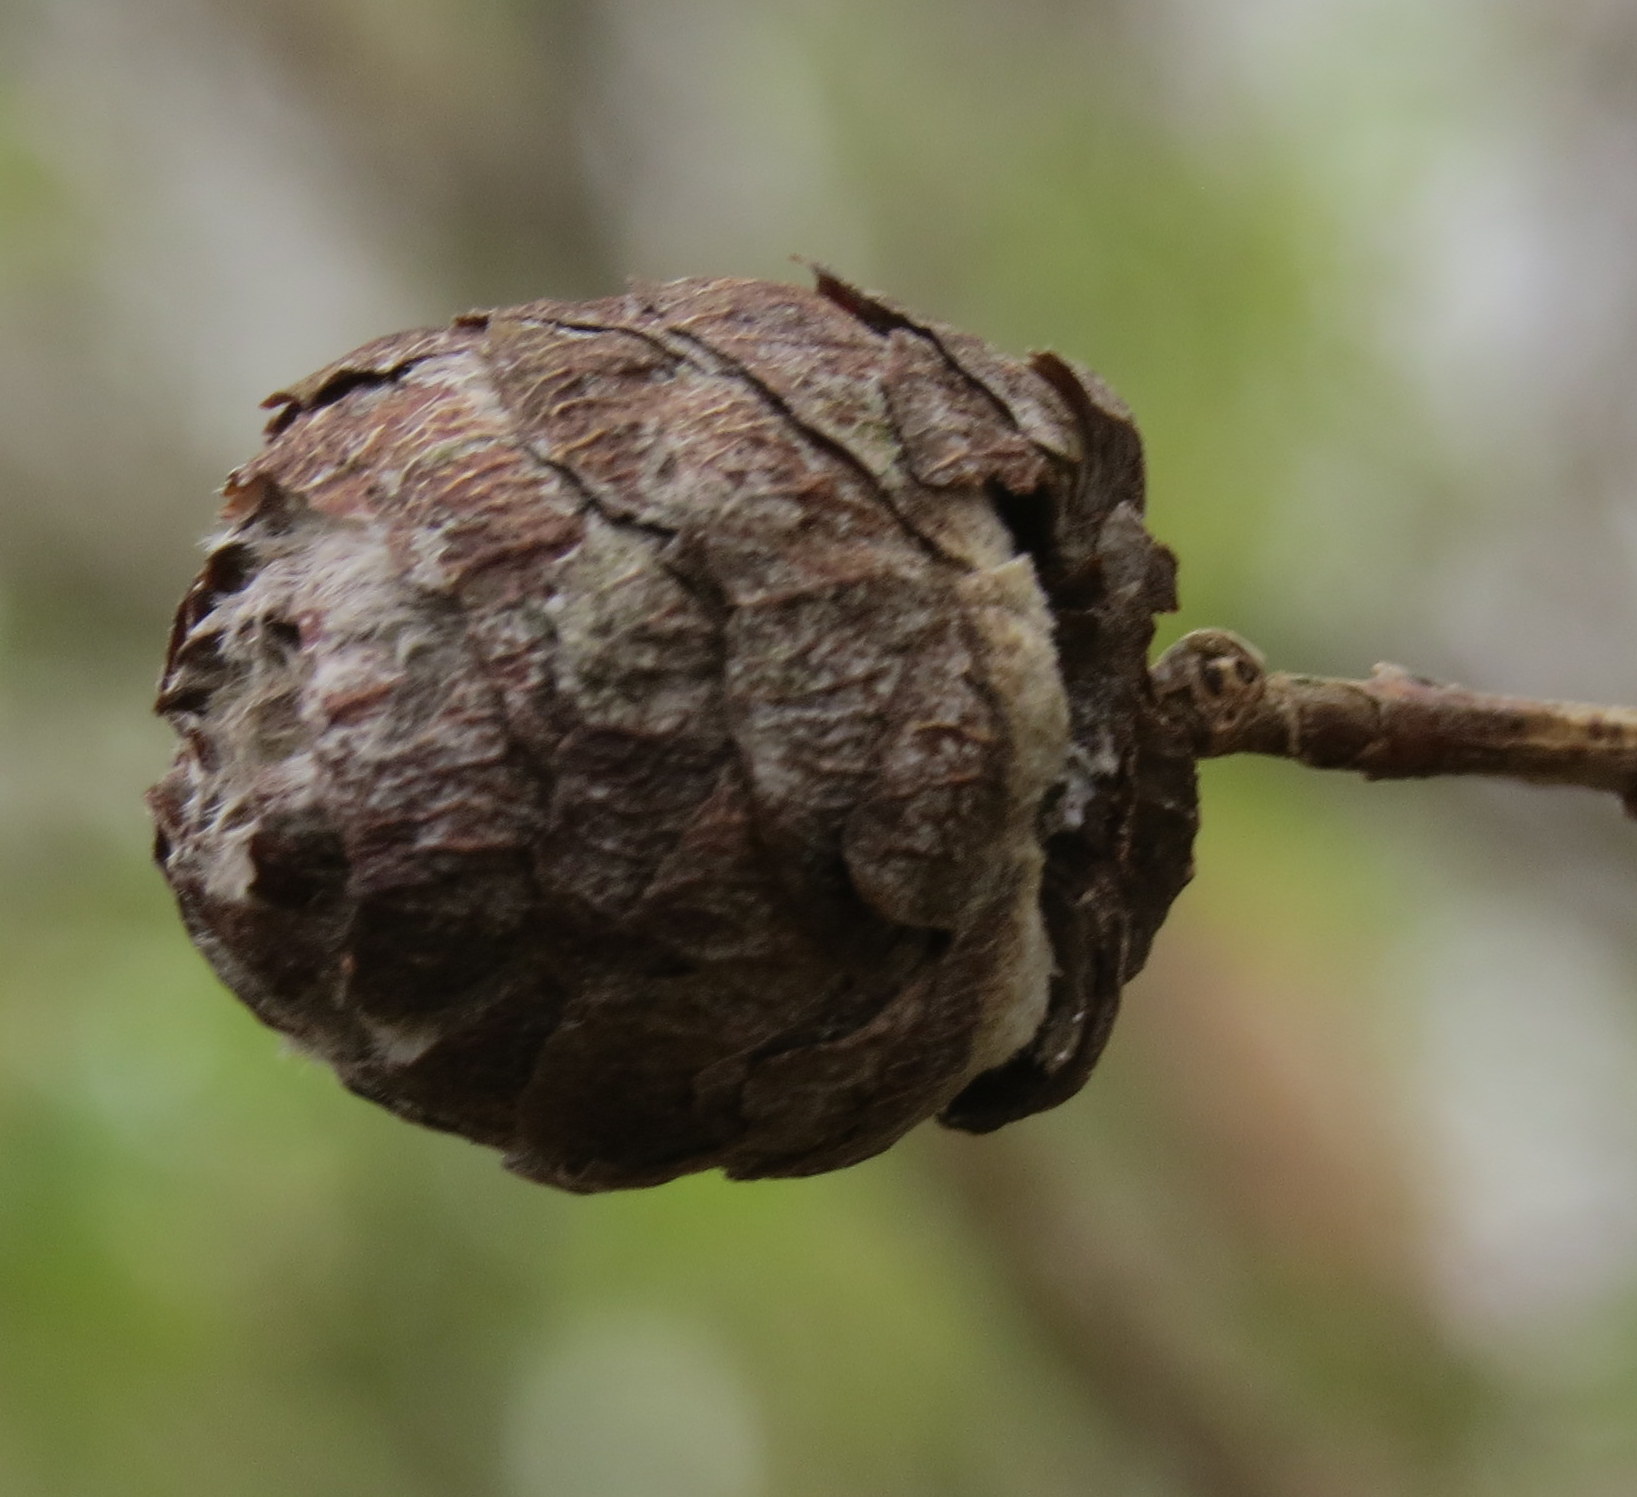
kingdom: Animalia
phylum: Arthropoda
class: Insecta
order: Diptera
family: Cecidomyiidae
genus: Rabdophaga
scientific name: Rabdophaga strobiloides
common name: Willow pinecone gall midge
